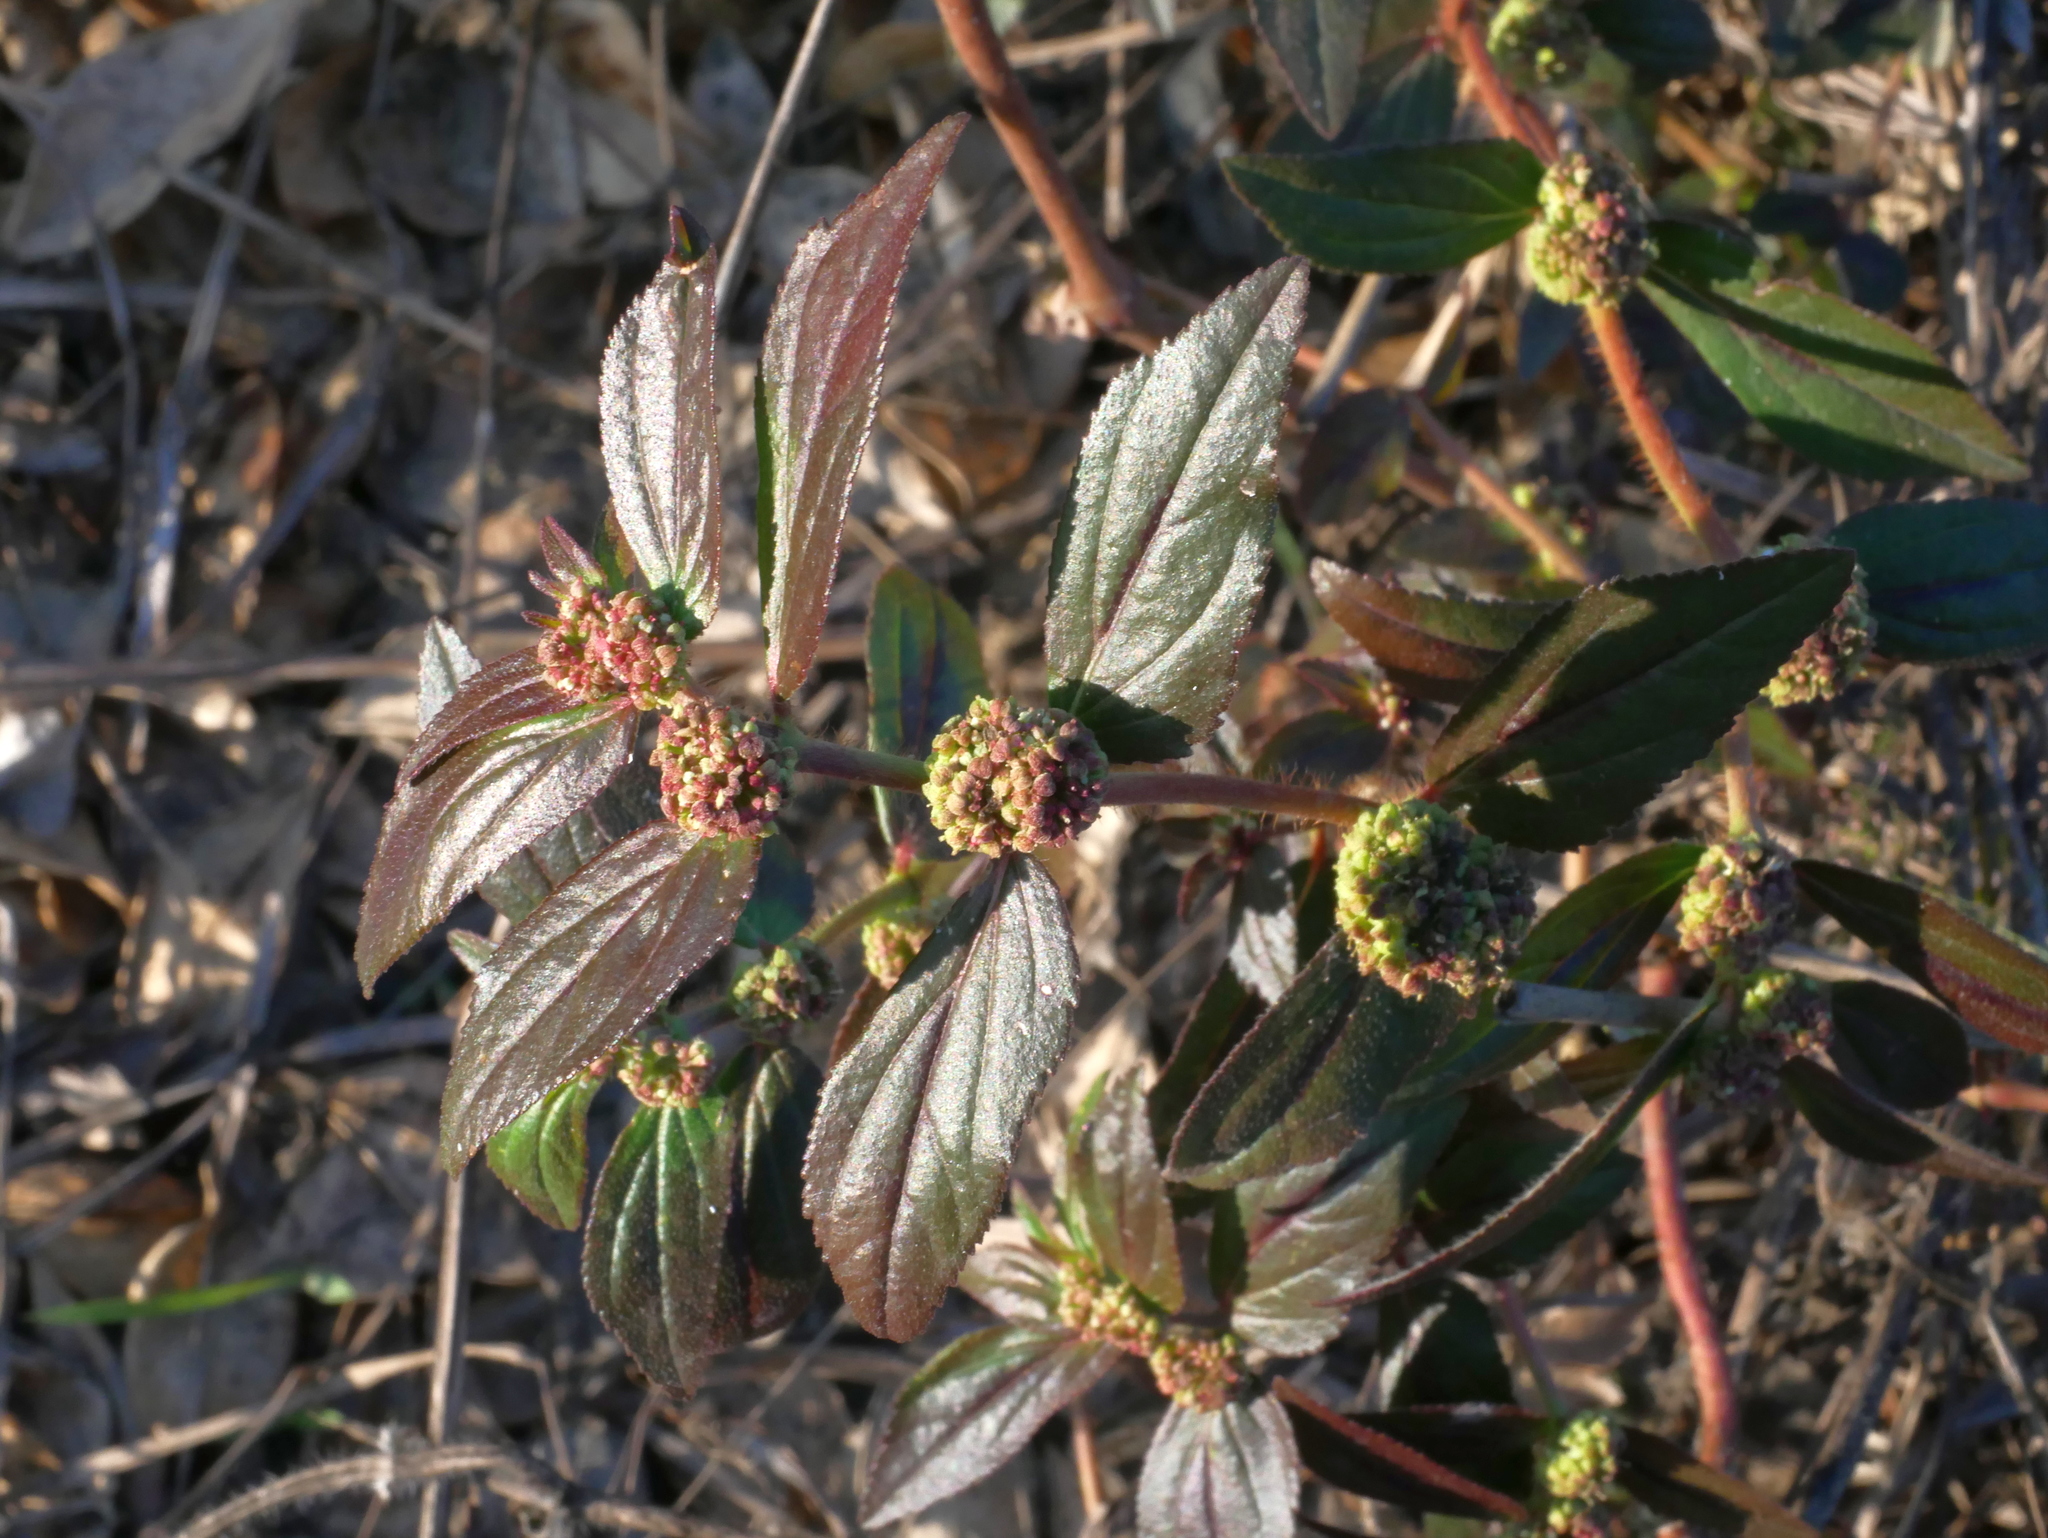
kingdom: Plantae
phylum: Tracheophyta
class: Magnoliopsida
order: Malpighiales
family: Euphorbiaceae
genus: Euphorbia
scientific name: Euphorbia hirta
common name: Pillpod sandmat
